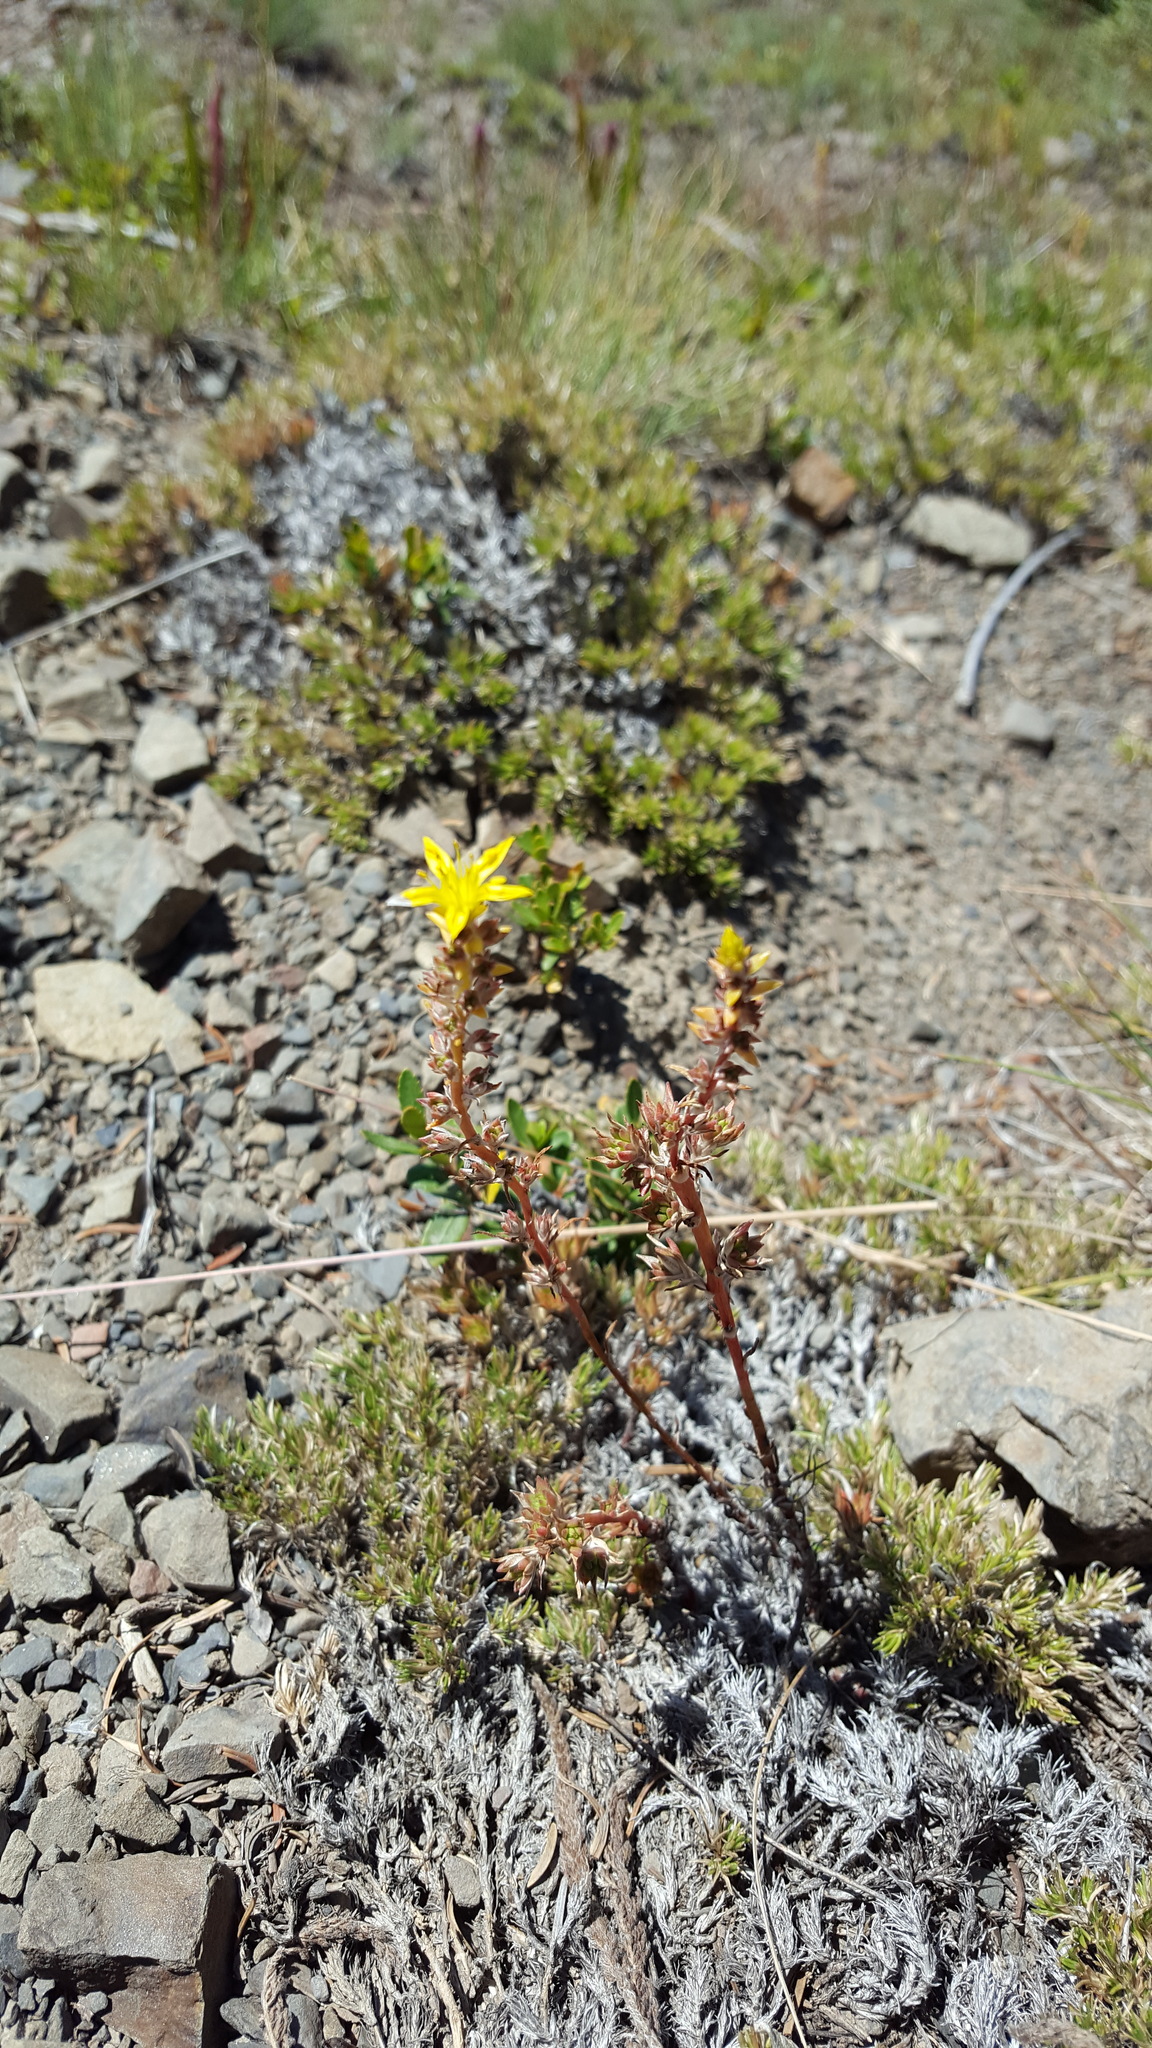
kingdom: Plantae
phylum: Tracheophyta
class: Magnoliopsida
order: Saxifragales
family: Crassulaceae
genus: Sedum
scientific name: Sedum stenopetalum
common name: Narrow-petaled stonecrop
